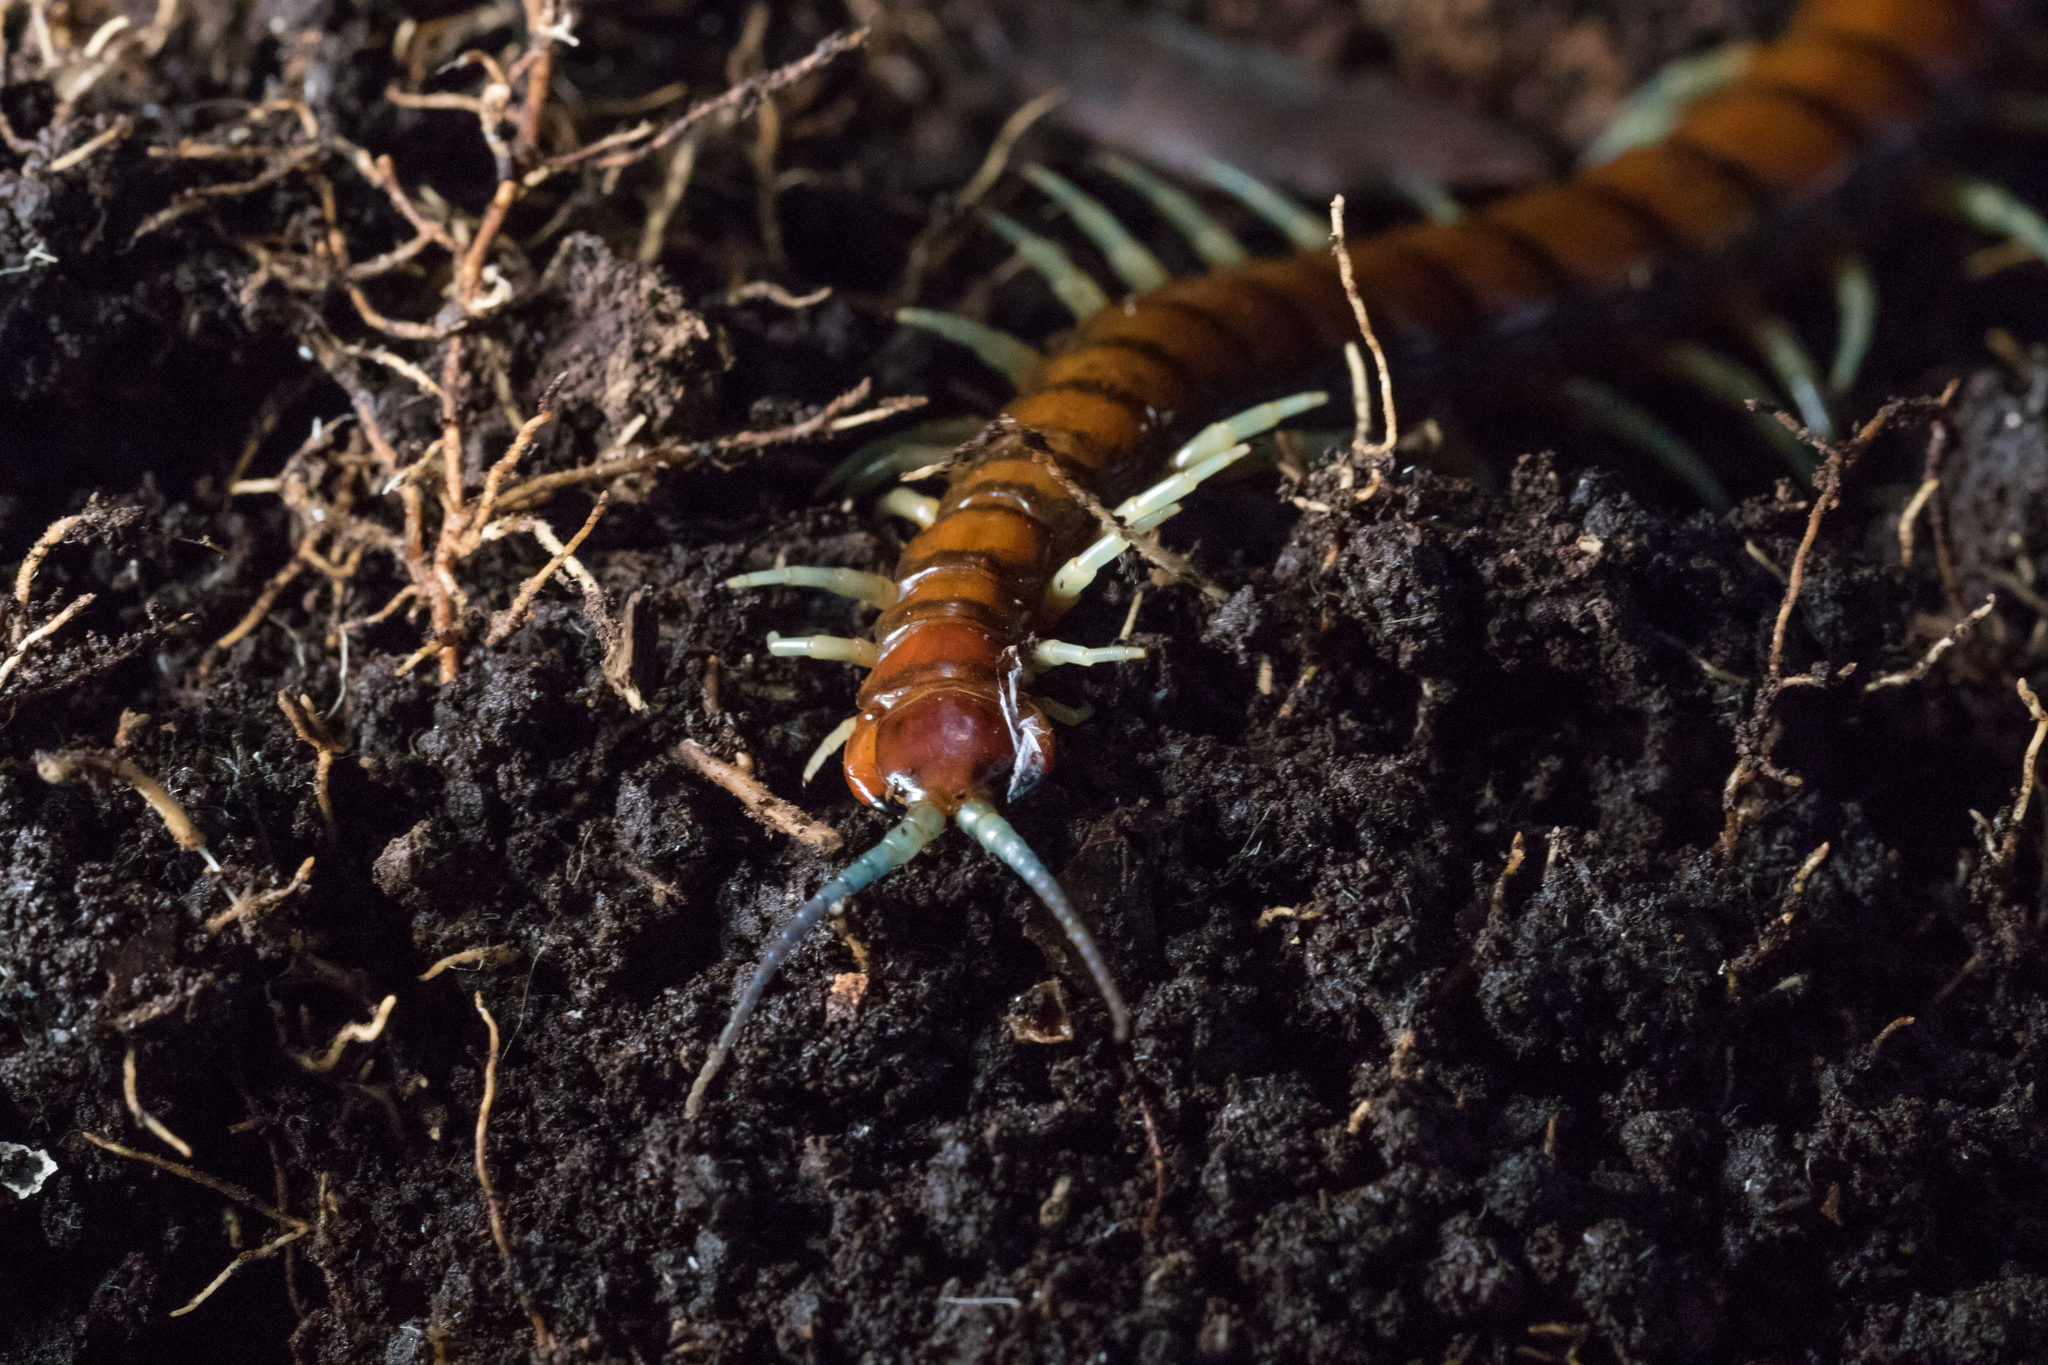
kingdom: Animalia
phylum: Arthropoda
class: Chilopoda
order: Scolopendromorpha
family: Scolopendridae
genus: Cormocephalus
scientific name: Cormocephalus rubriceps
